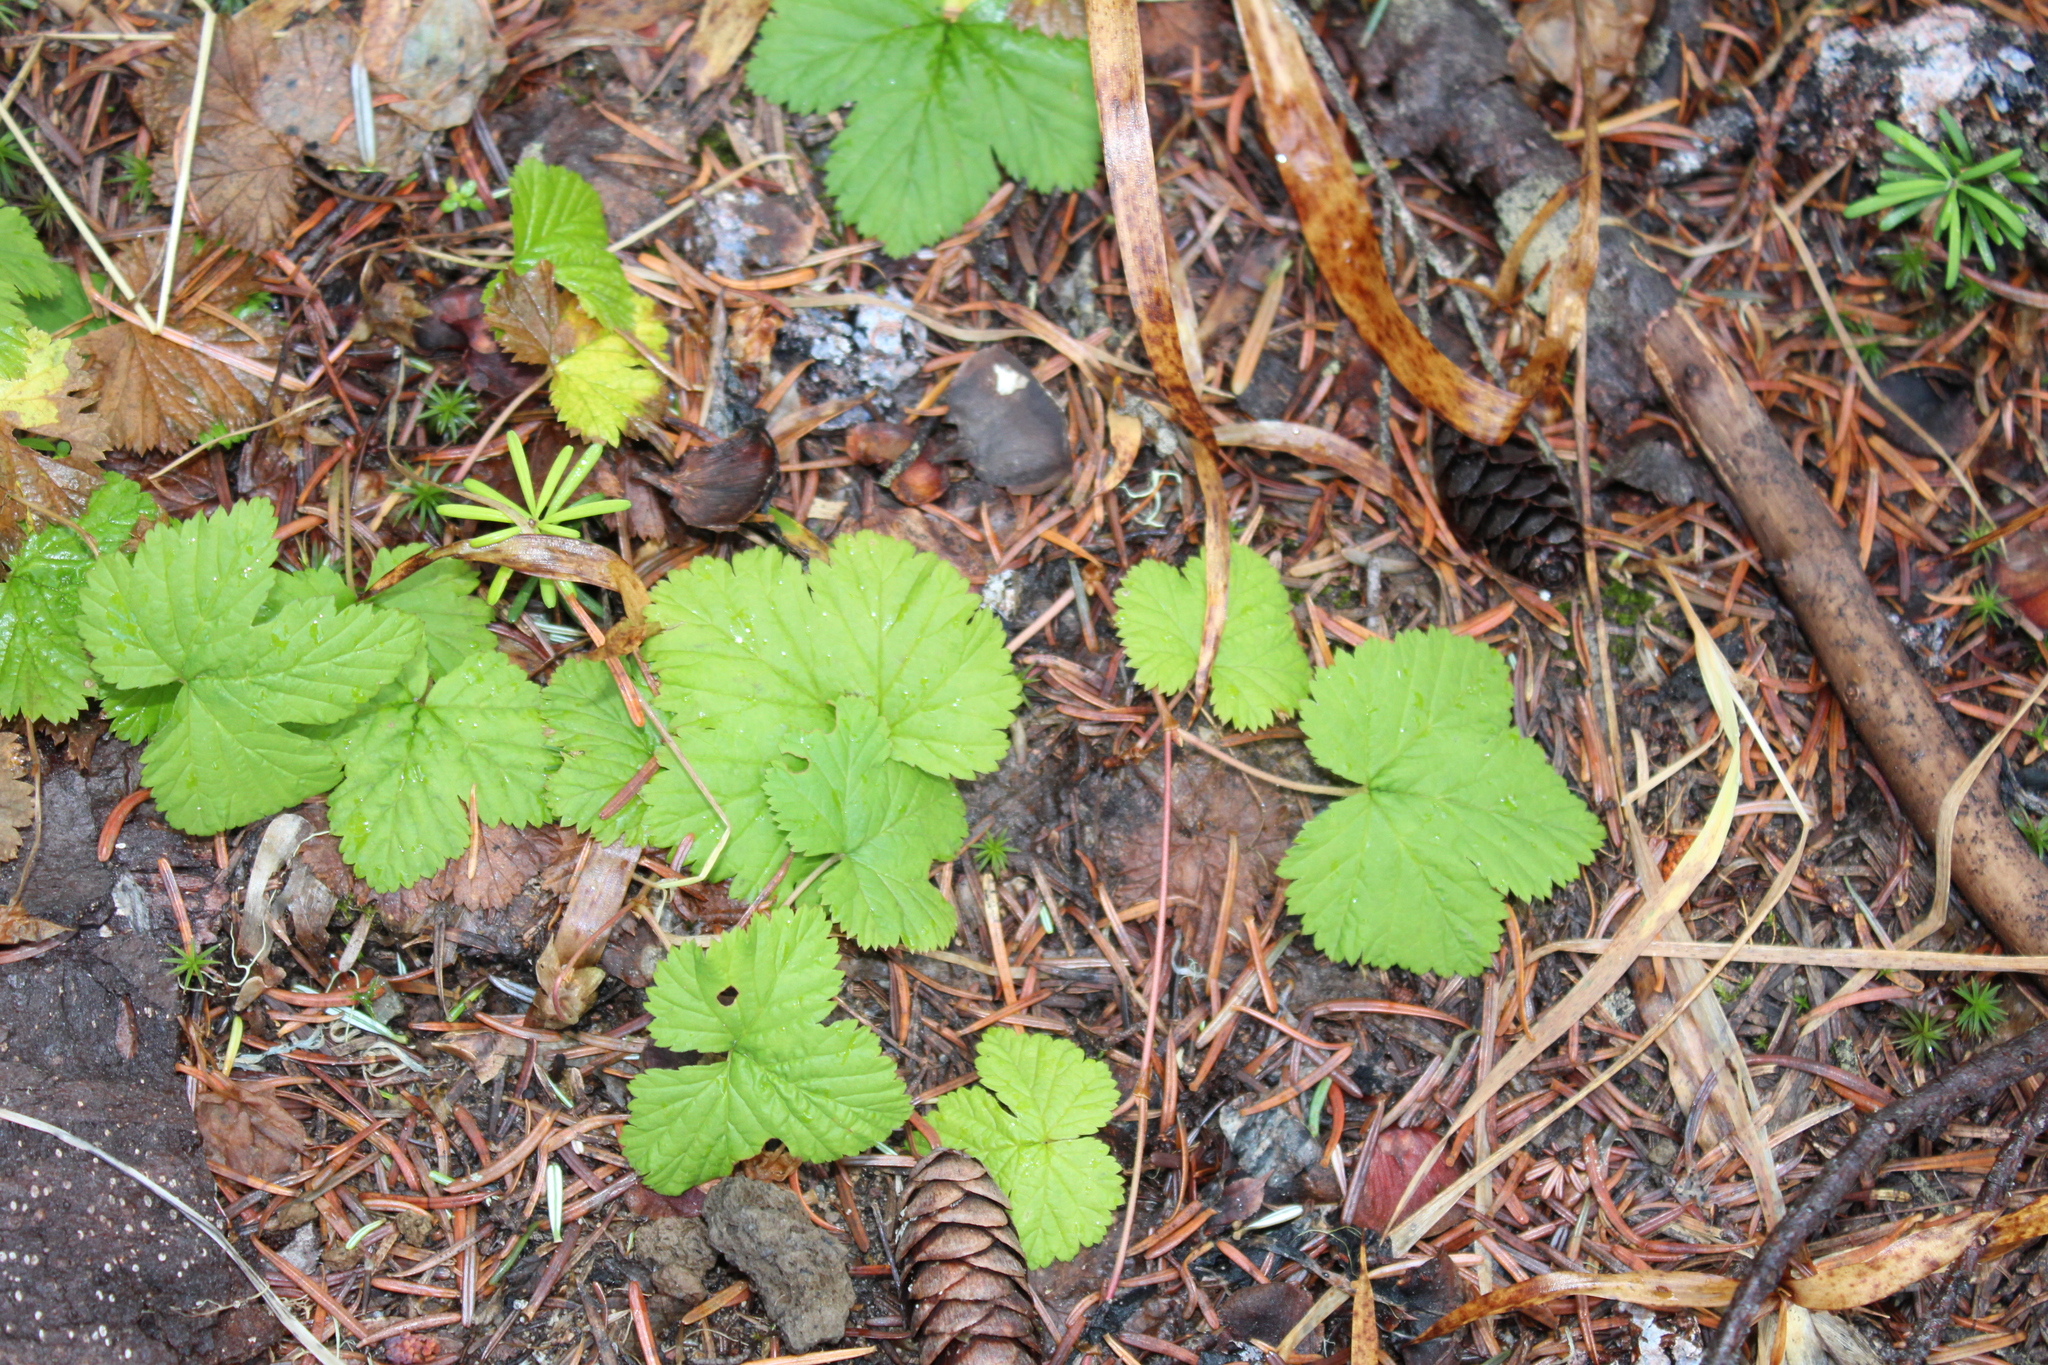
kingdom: Plantae
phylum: Tracheophyta
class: Magnoliopsida
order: Rosales
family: Rosaceae
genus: Rubus
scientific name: Rubus lasiococcus
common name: Dwarf bramble
